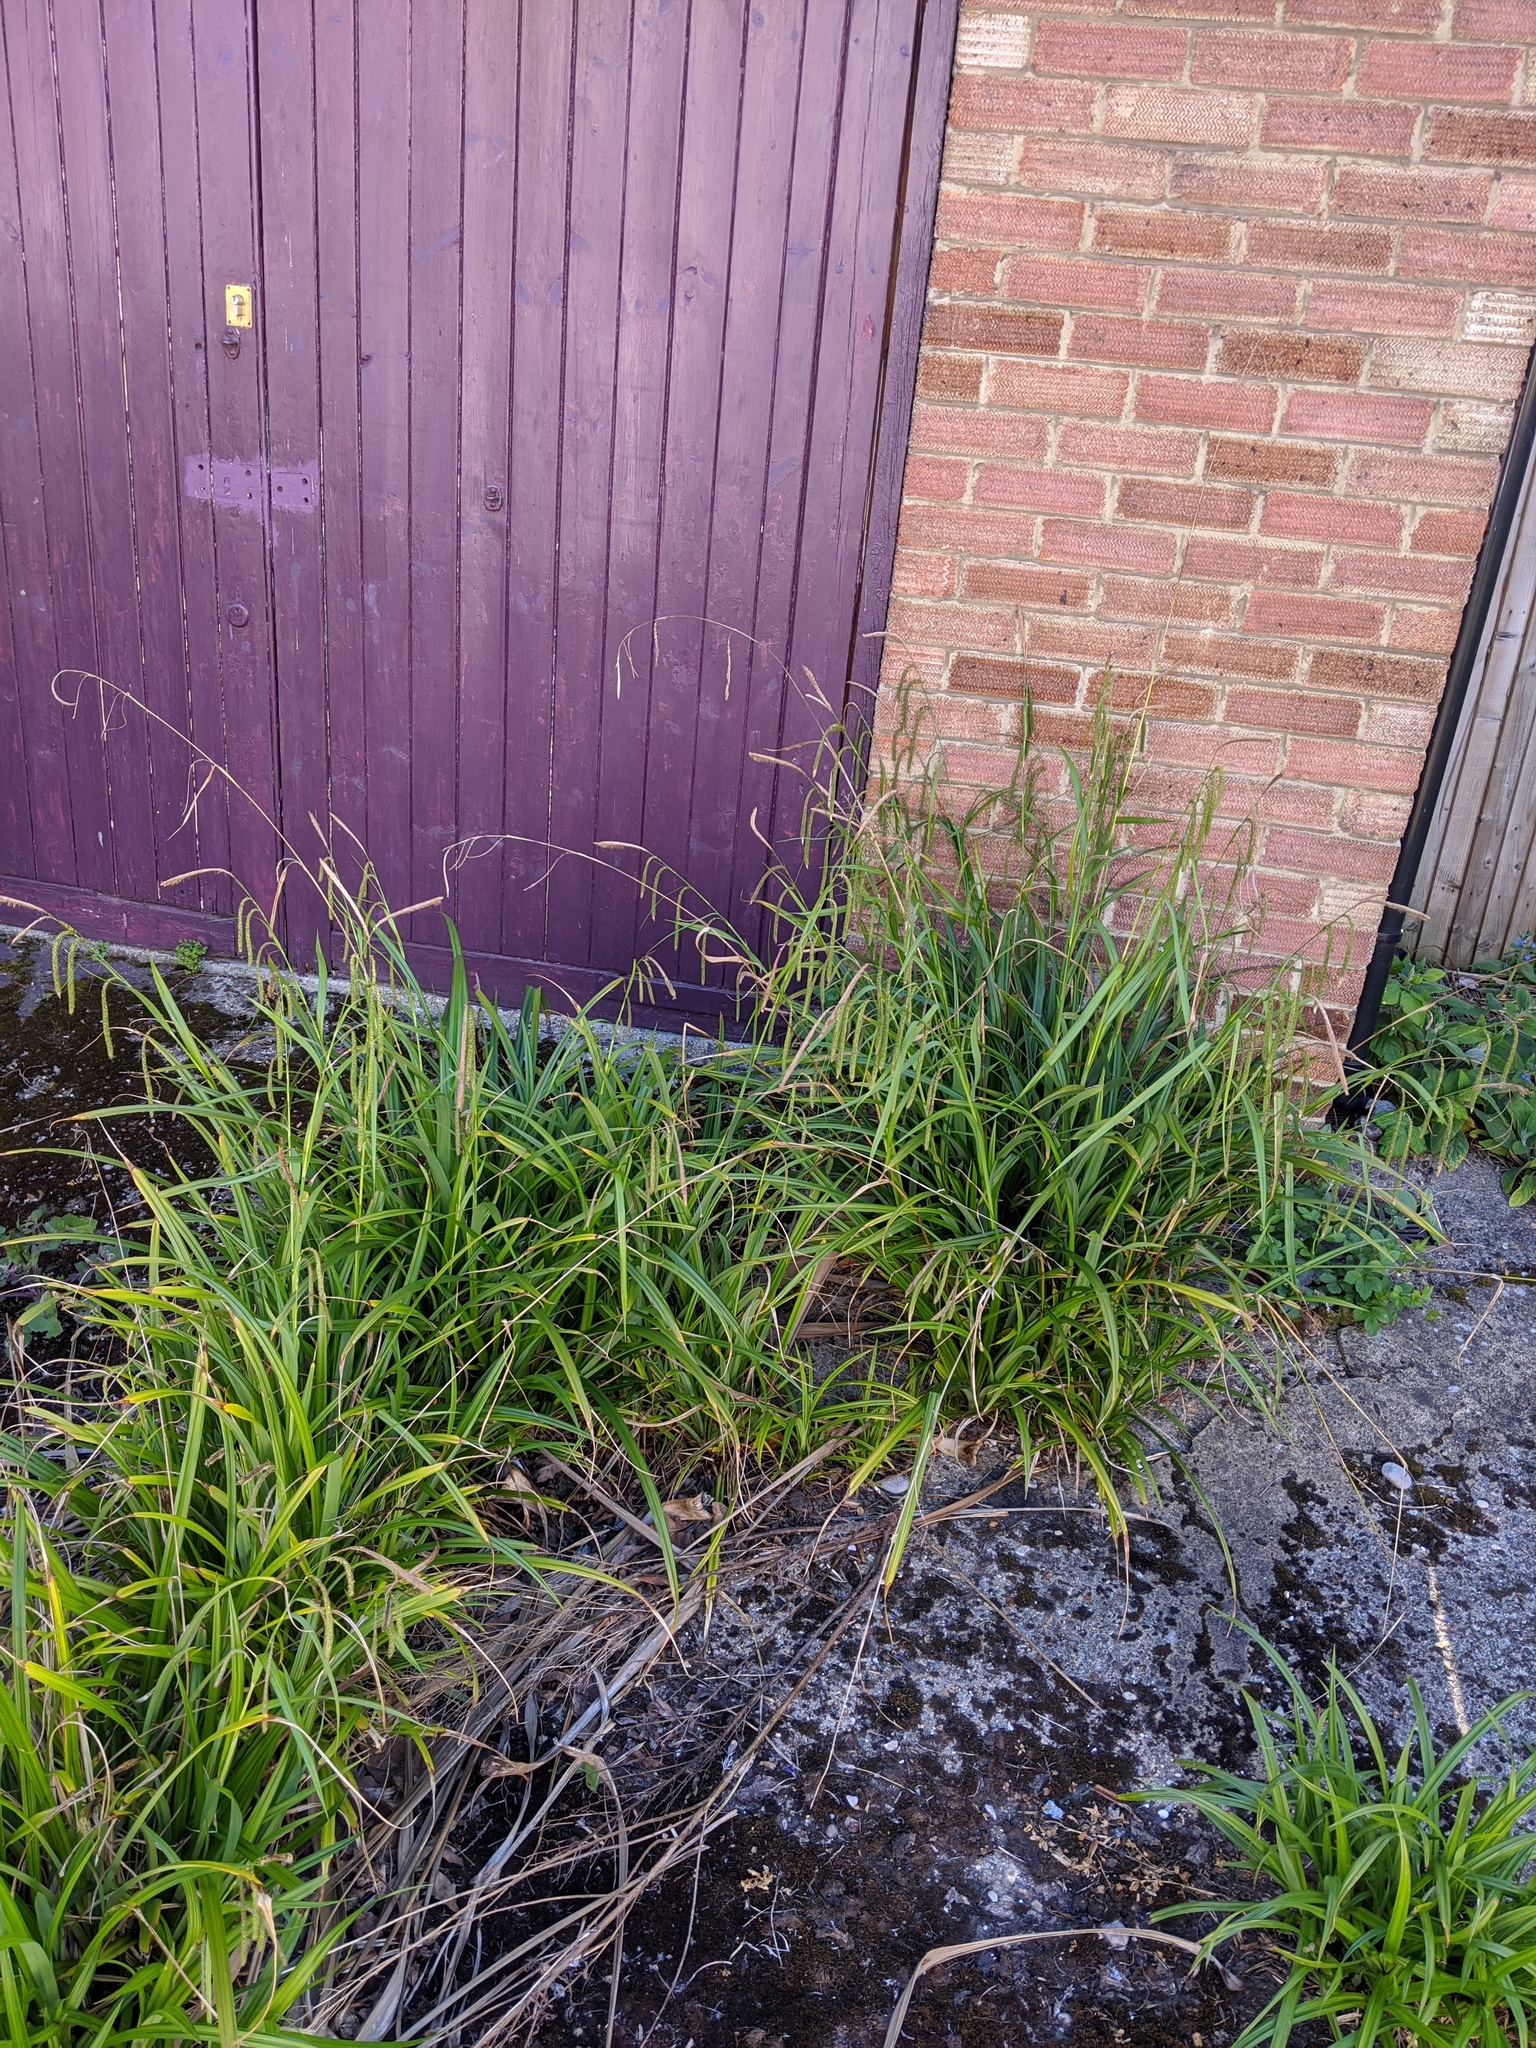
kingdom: Plantae
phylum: Tracheophyta
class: Liliopsida
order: Poales
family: Cyperaceae
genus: Carex
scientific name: Carex pendula
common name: Pendulous sedge
